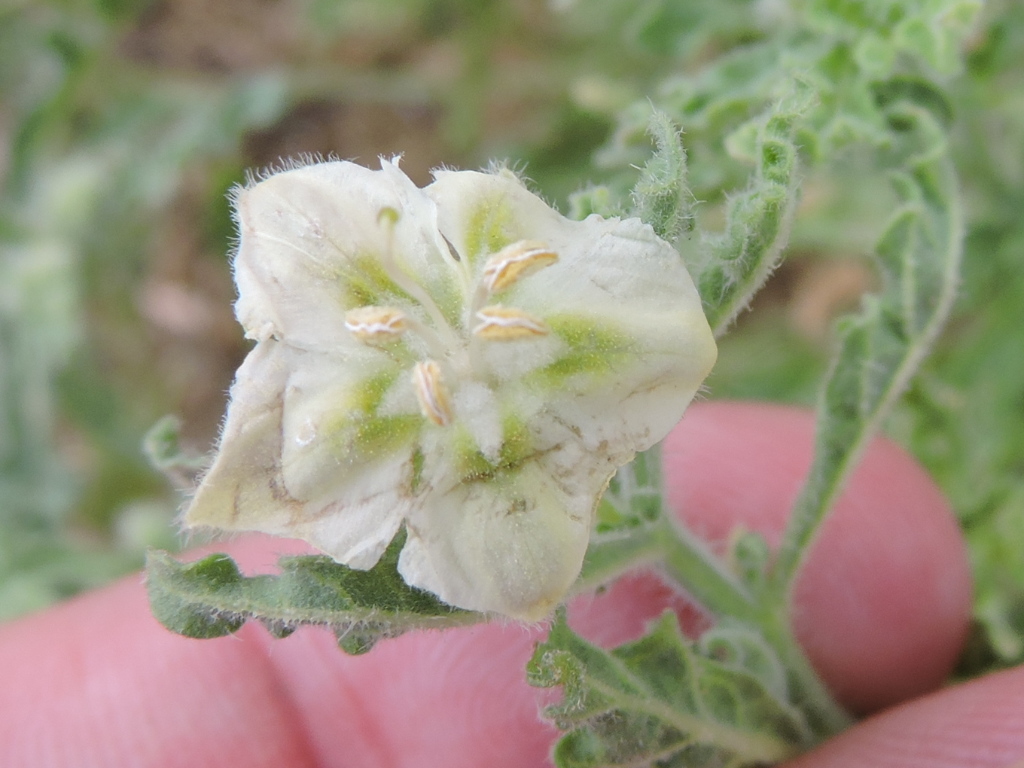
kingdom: Plantae
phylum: Tracheophyta
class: Magnoliopsida
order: Solanales
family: Solanaceae
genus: Chamaesaracha
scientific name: Chamaesaracha coniodes
